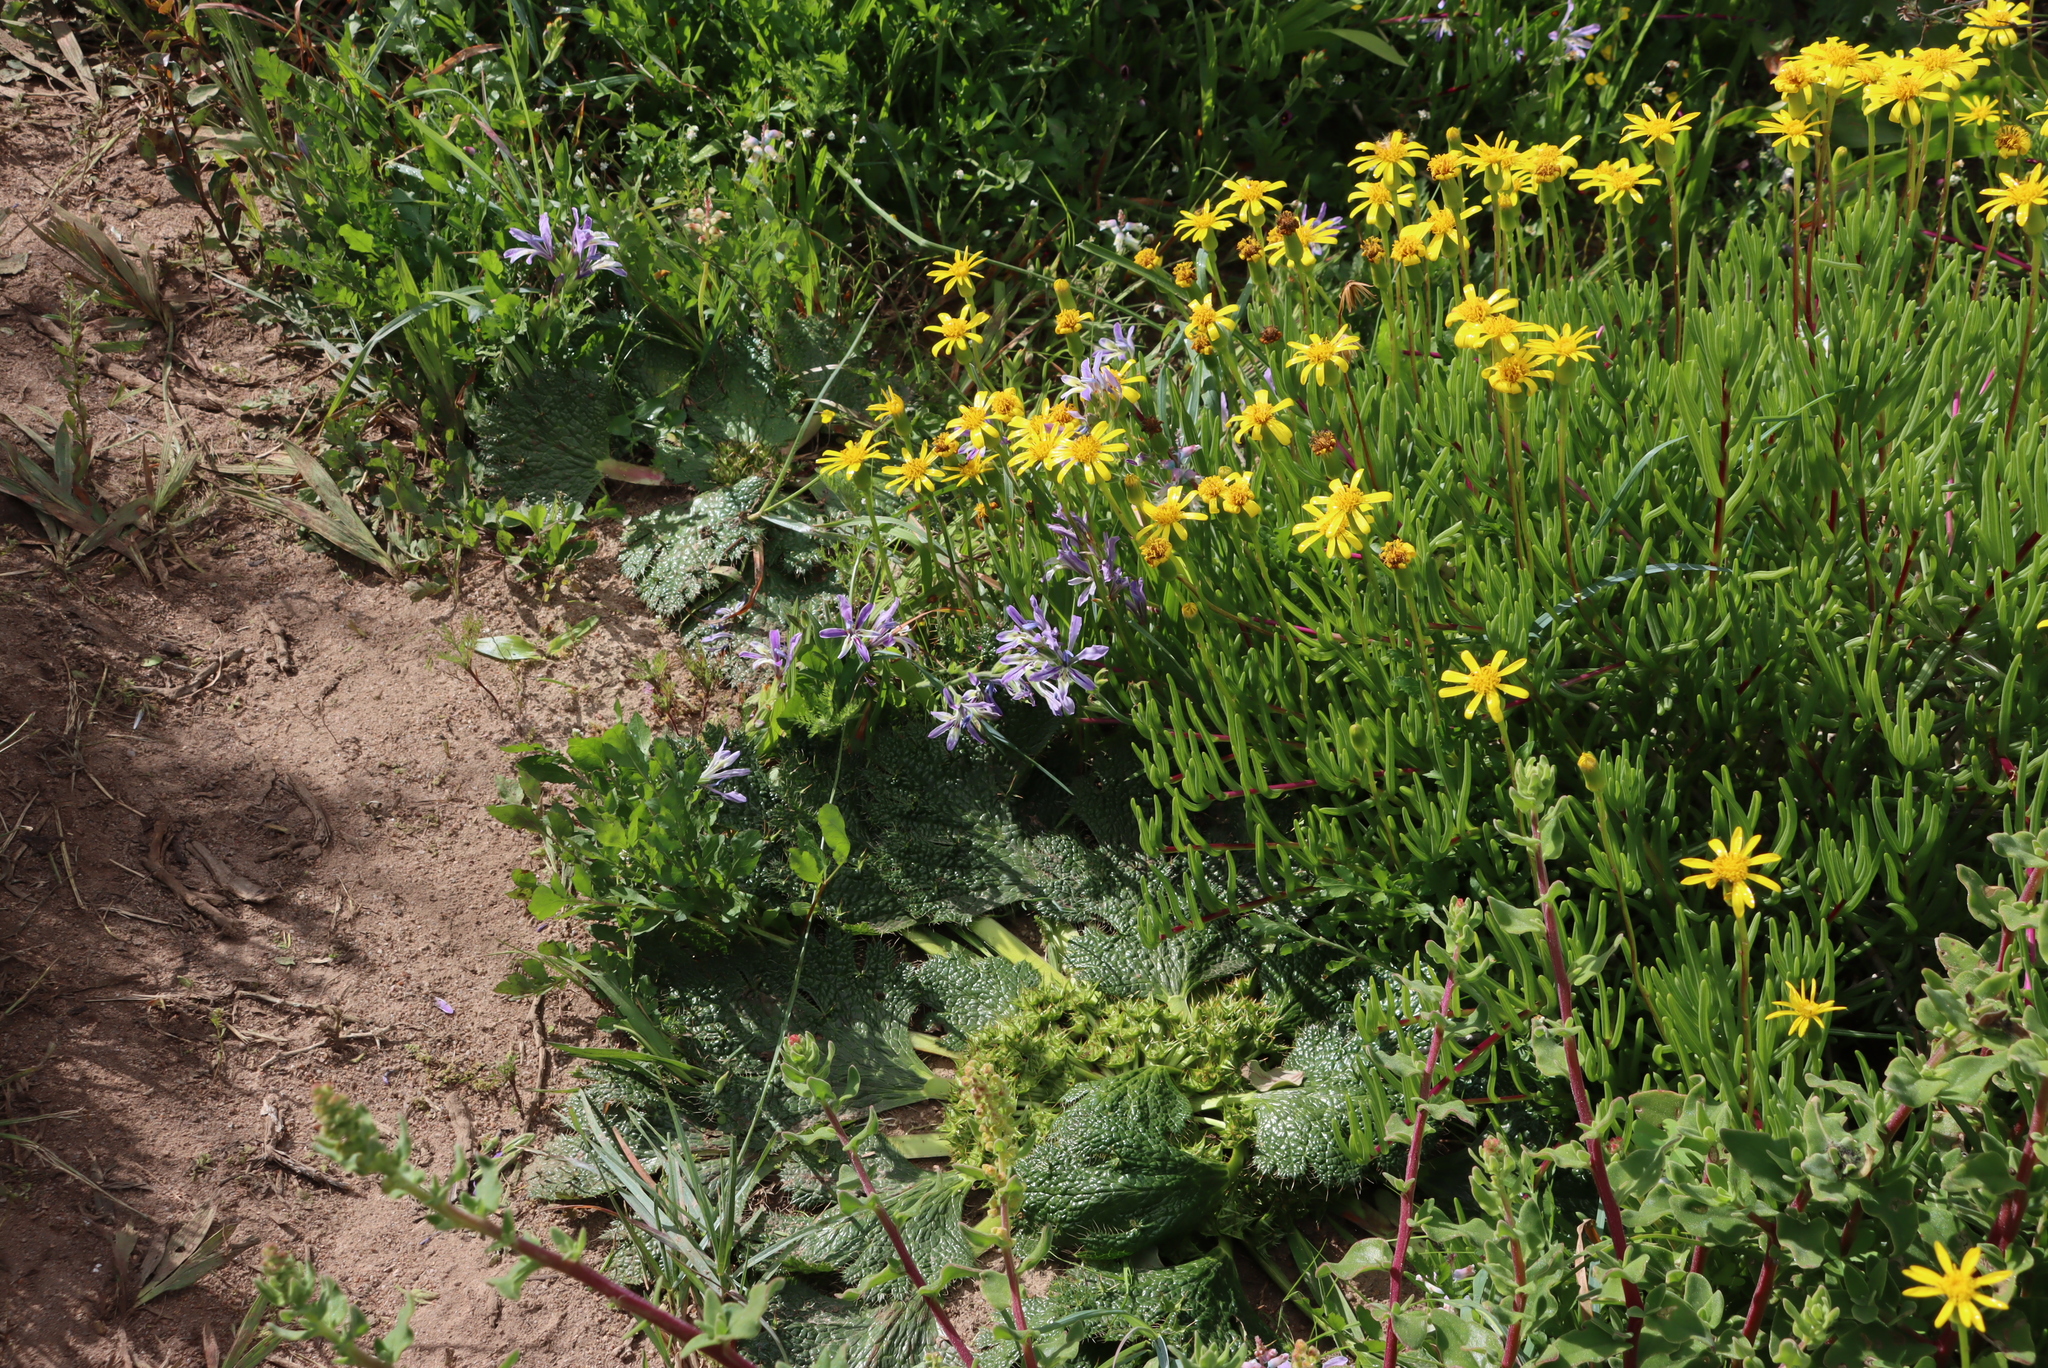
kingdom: Plantae
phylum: Tracheophyta
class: Magnoliopsida
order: Asterales
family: Asteraceae
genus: Senecio
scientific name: Senecio alooides
